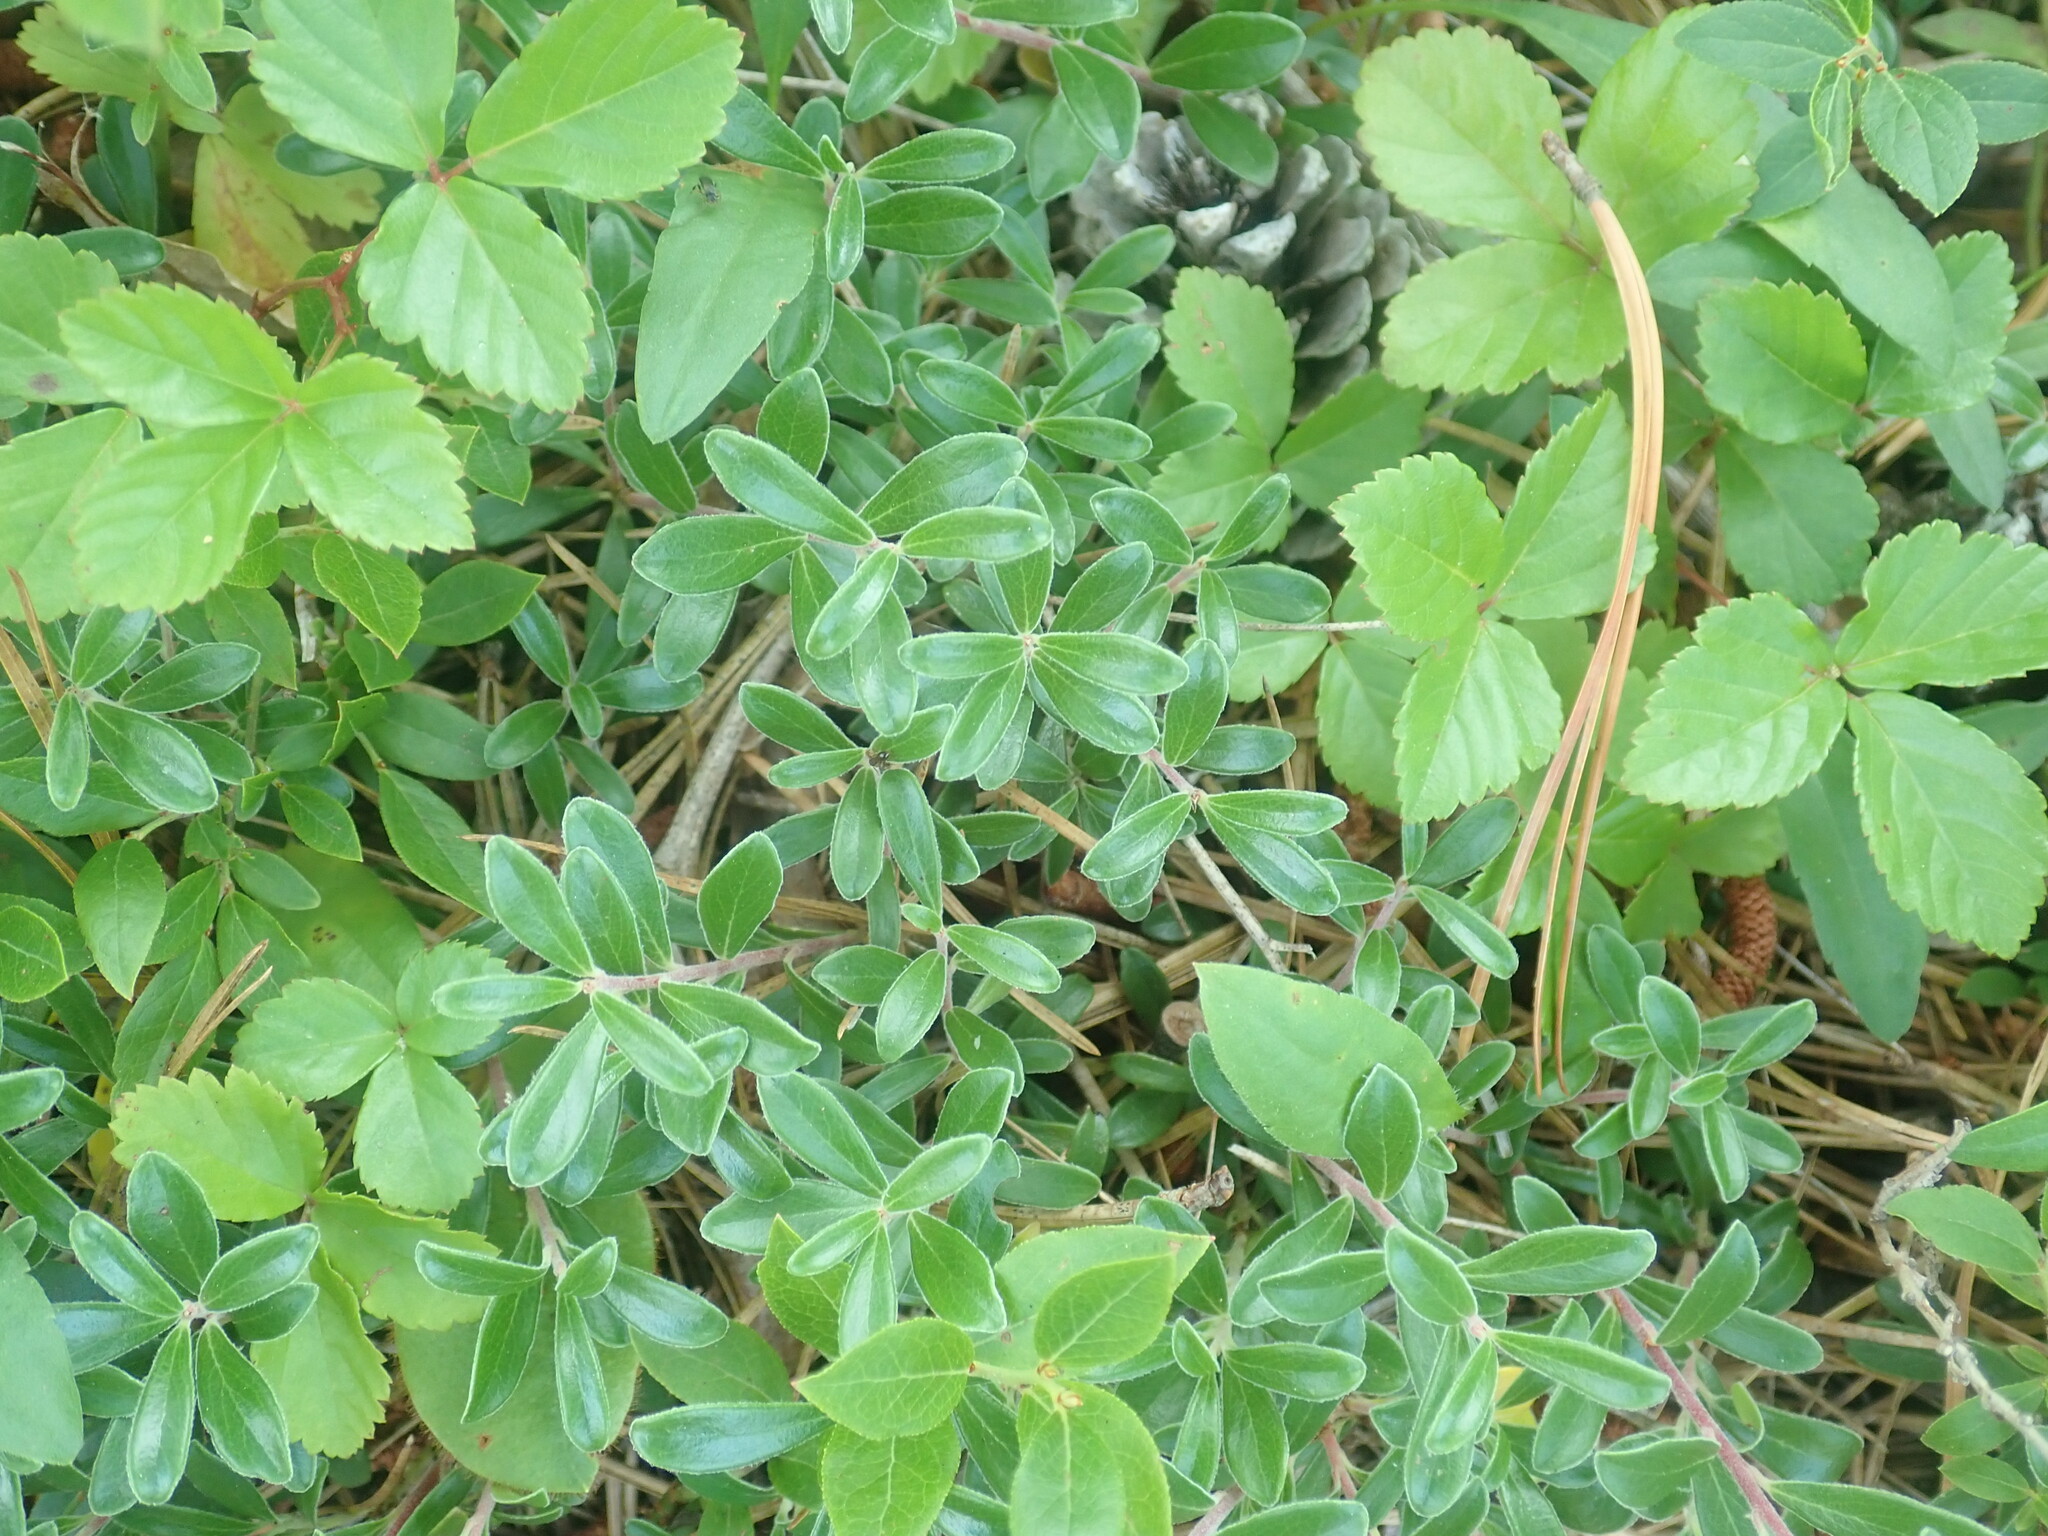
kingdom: Plantae
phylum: Tracheophyta
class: Magnoliopsida
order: Ericales
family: Ericaceae
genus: Arctostaphylos
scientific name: Arctostaphylos uva-ursi
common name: Bearberry
